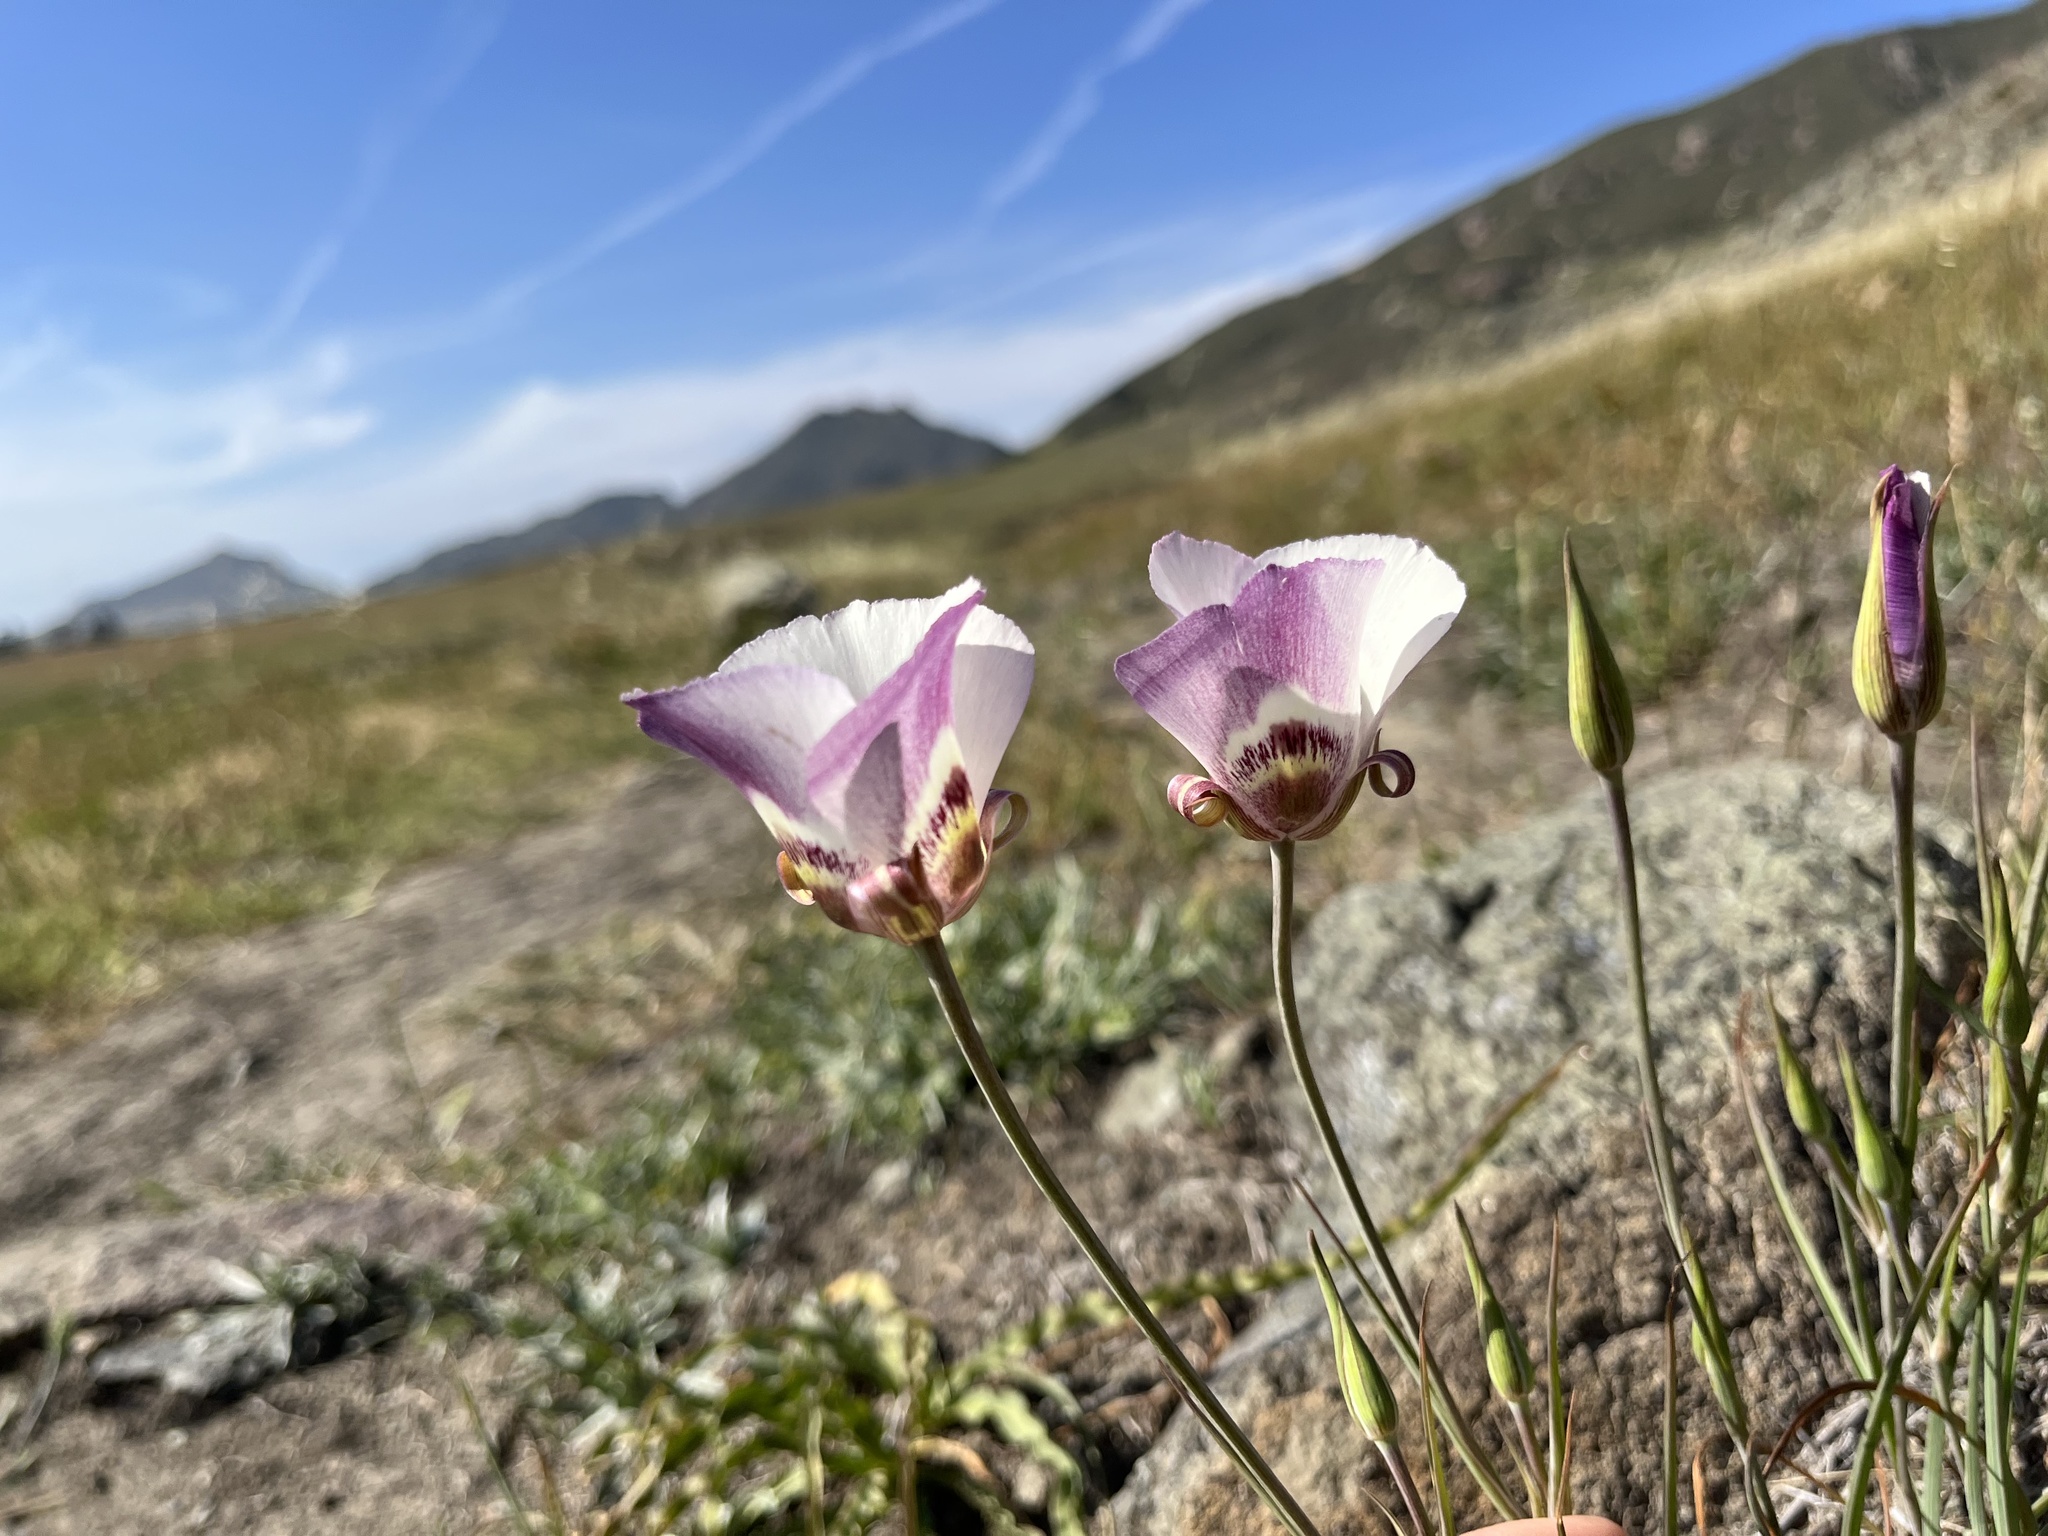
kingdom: Plantae
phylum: Tracheophyta
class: Liliopsida
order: Liliales
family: Liliaceae
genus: Calochortus
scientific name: Calochortus argillosus
